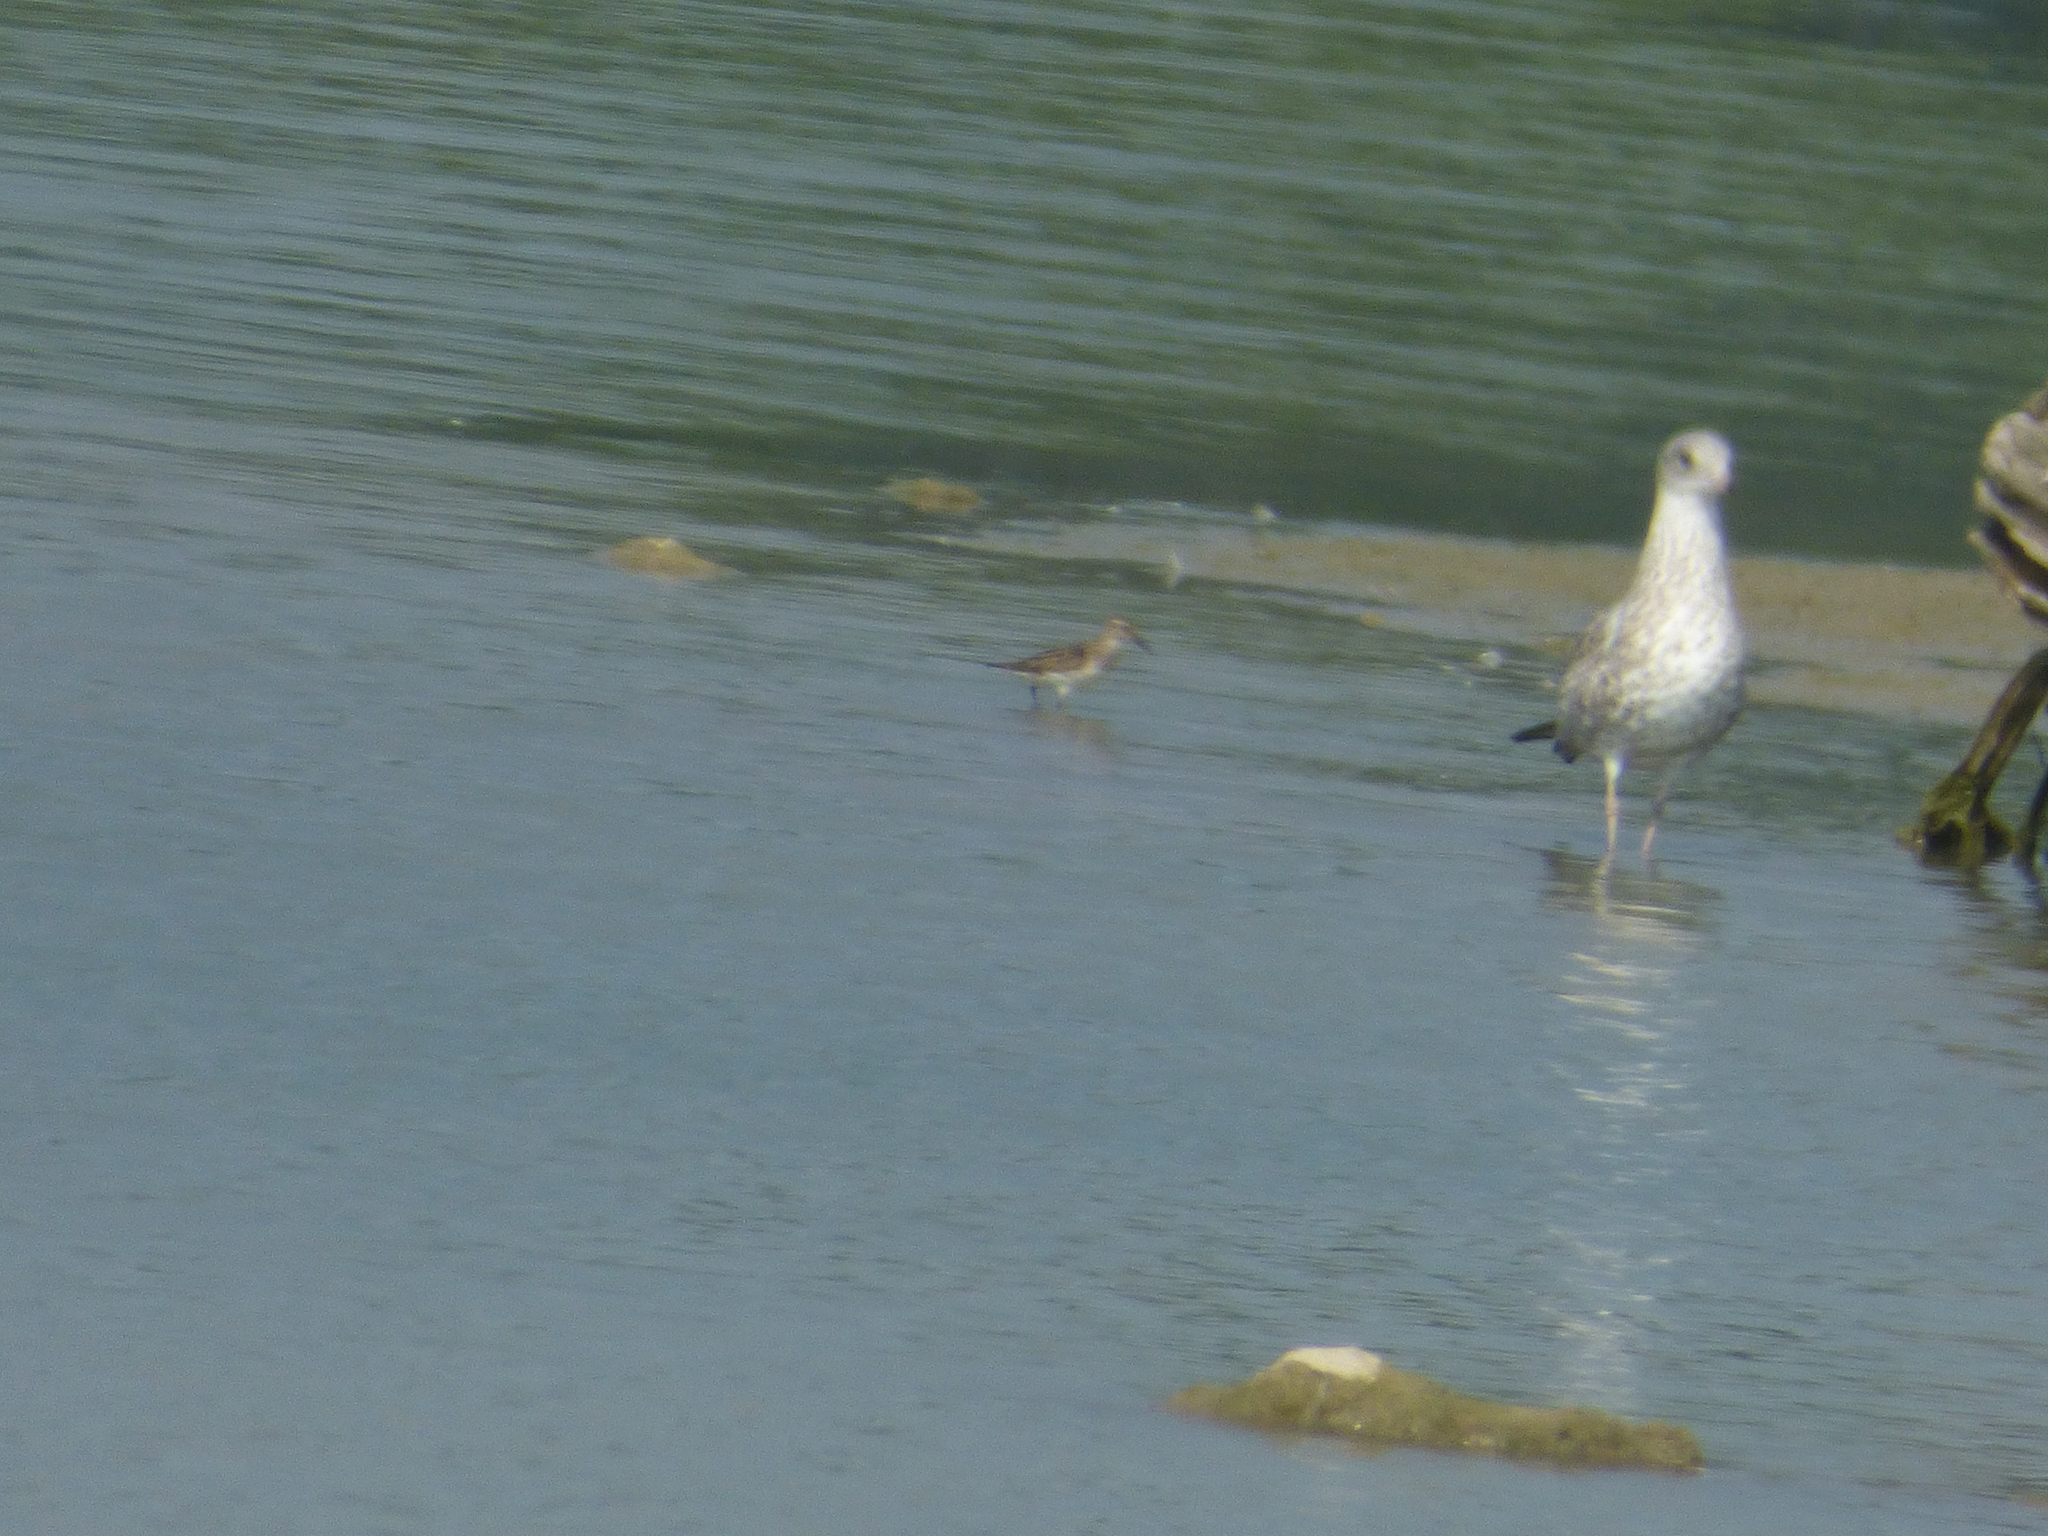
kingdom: Animalia
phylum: Chordata
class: Aves
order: Charadriiformes
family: Scolopacidae
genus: Calidris
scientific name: Calidris pusilla
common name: Semipalmated sandpiper
